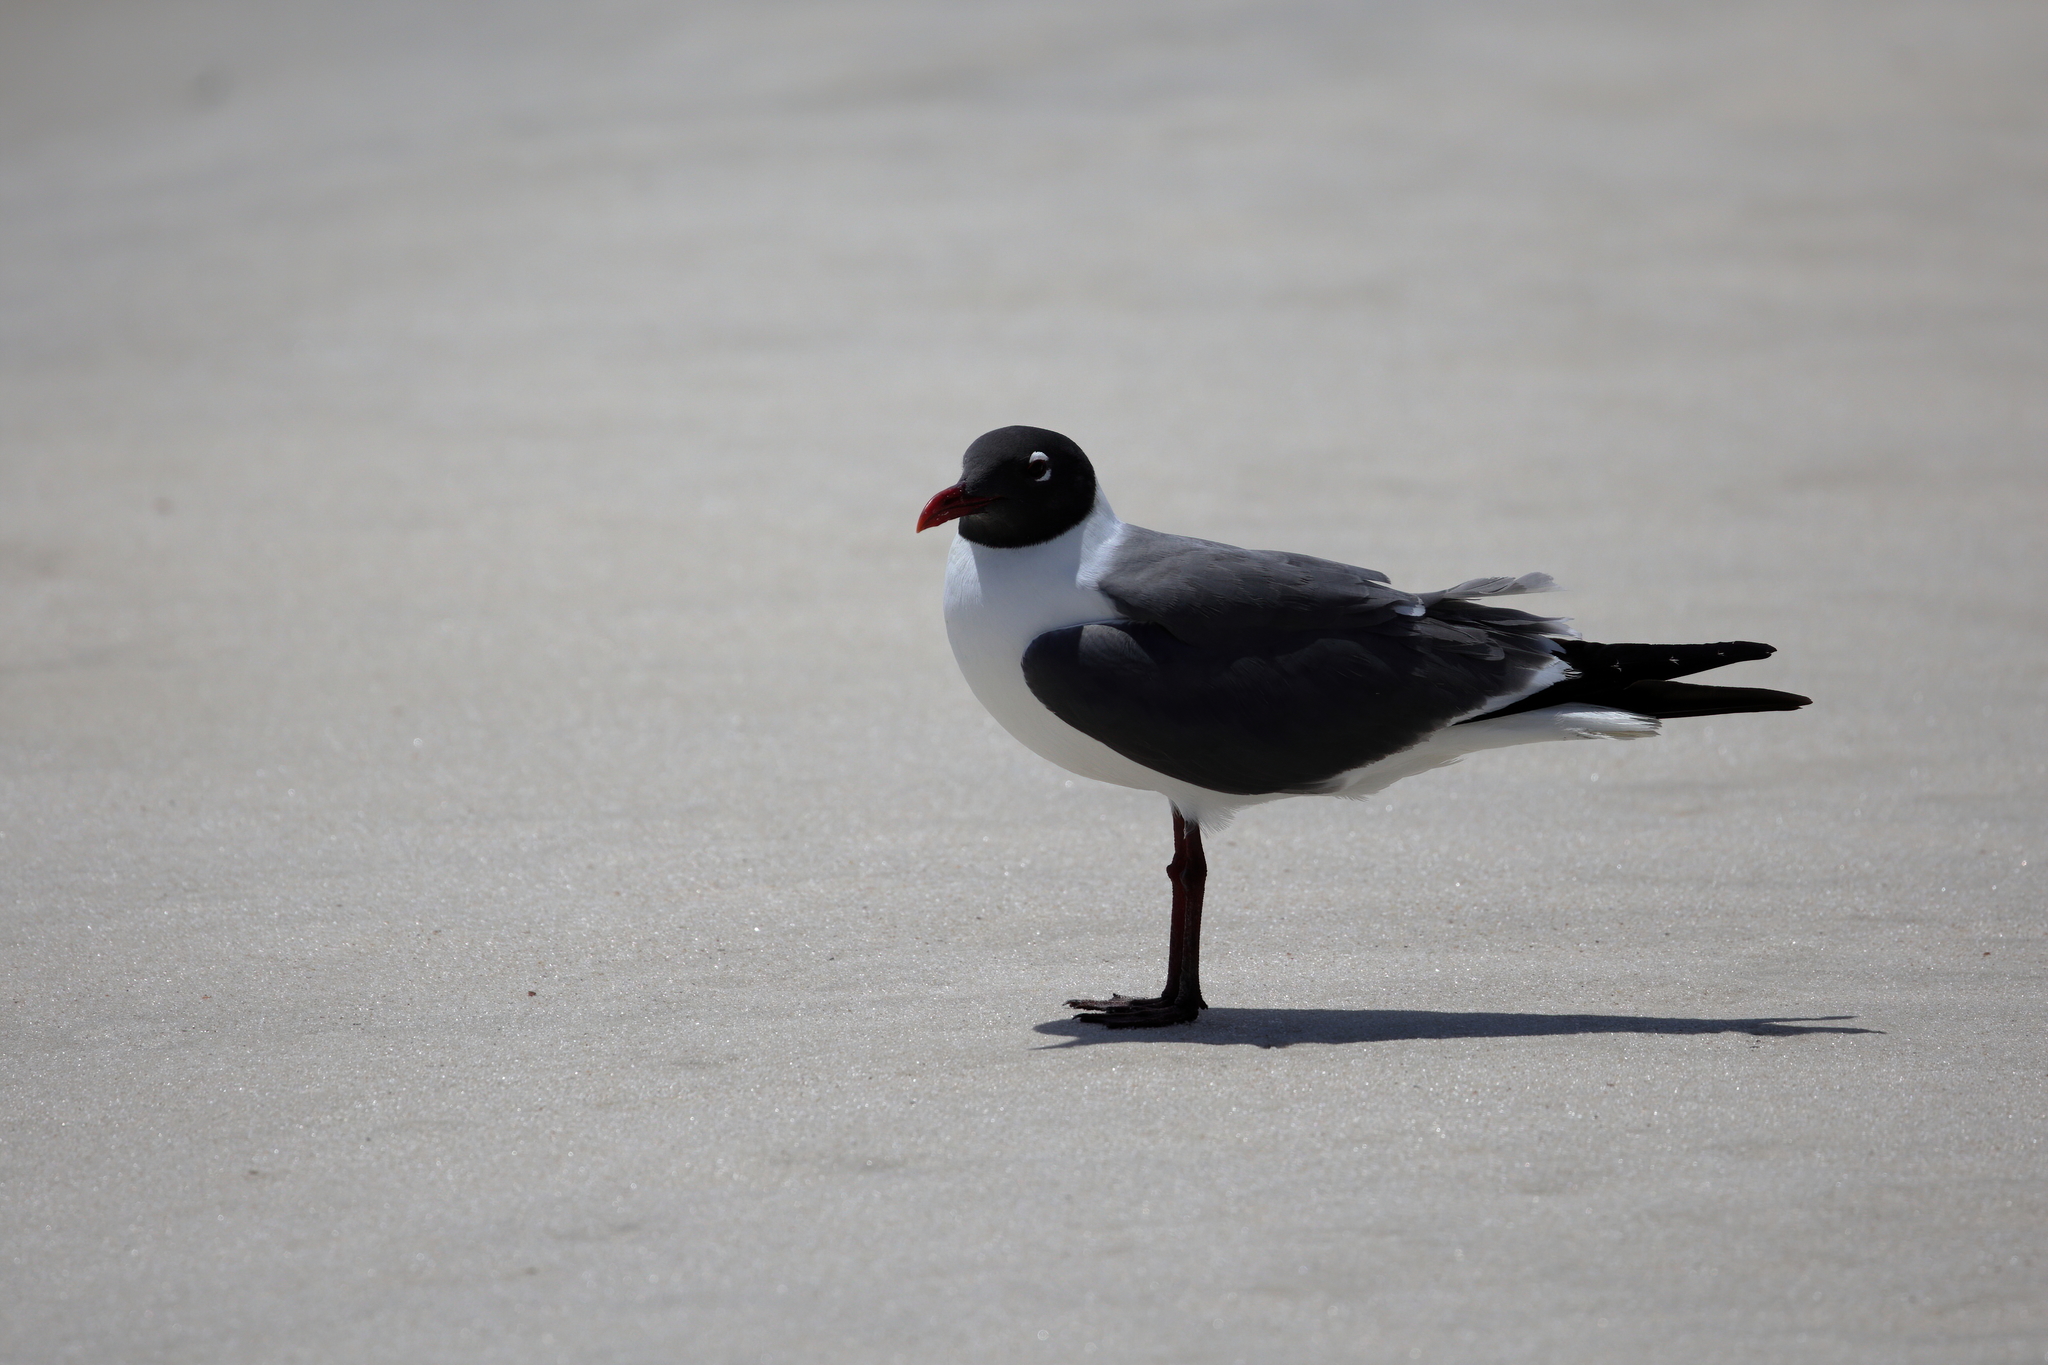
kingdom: Animalia
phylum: Chordata
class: Aves
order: Charadriiformes
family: Laridae
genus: Leucophaeus
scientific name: Leucophaeus atricilla
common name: Laughing gull
